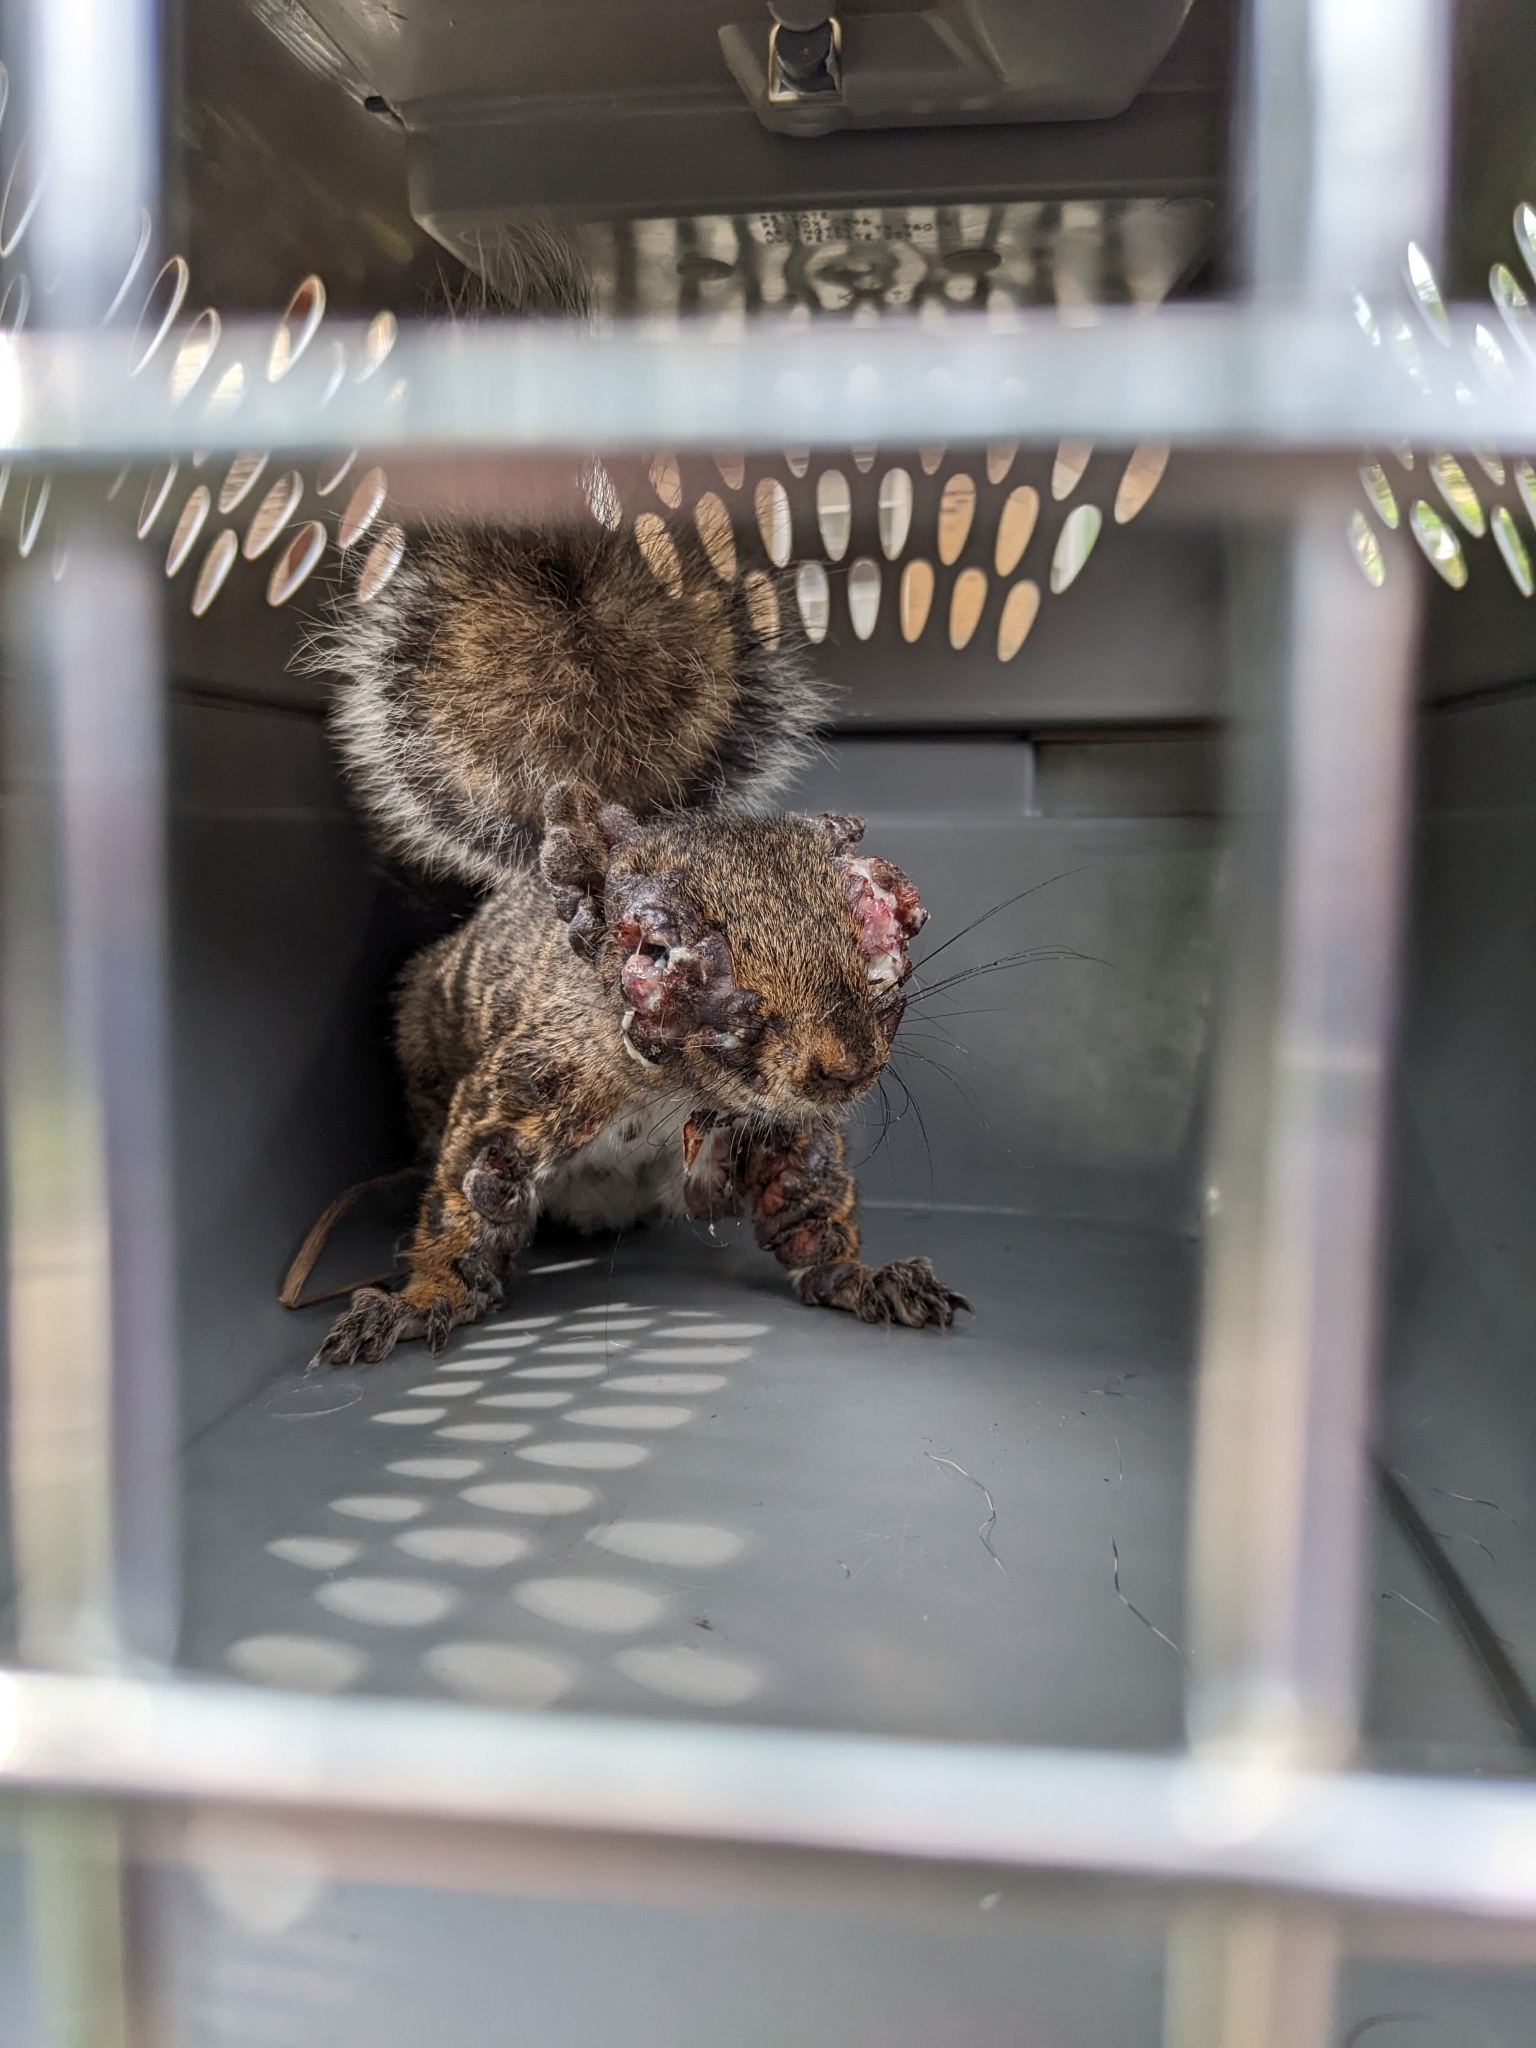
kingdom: Animalia
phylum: Chordata
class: Mammalia
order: Rodentia
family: Sciuridae
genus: Sciurus
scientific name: Sciurus carolinensis
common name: Eastern gray squirrel
